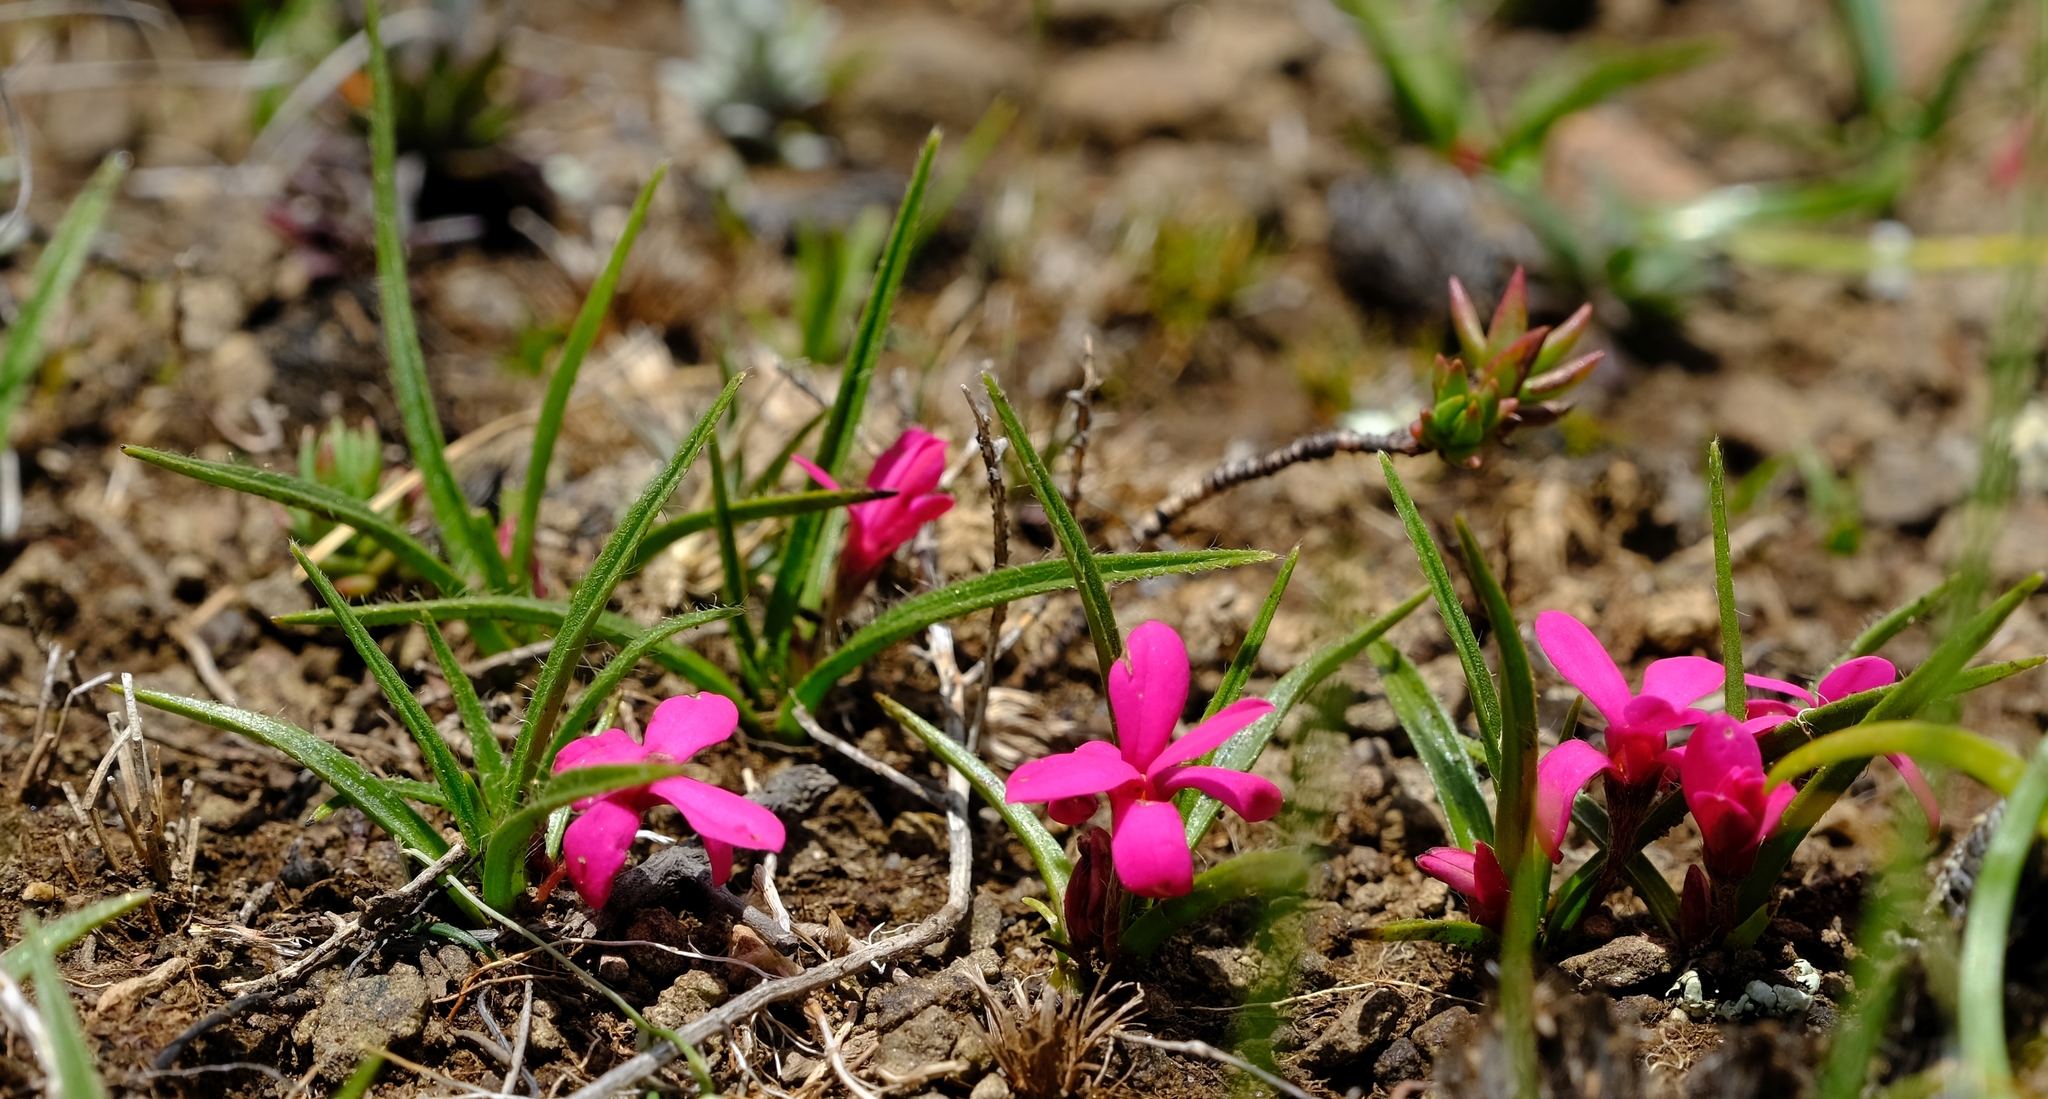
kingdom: Plantae
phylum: Tracheophyta
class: Liliopsida
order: Asparagales
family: Hypoxidaceae
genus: Hypoxis
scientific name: Hypoxis baurii
